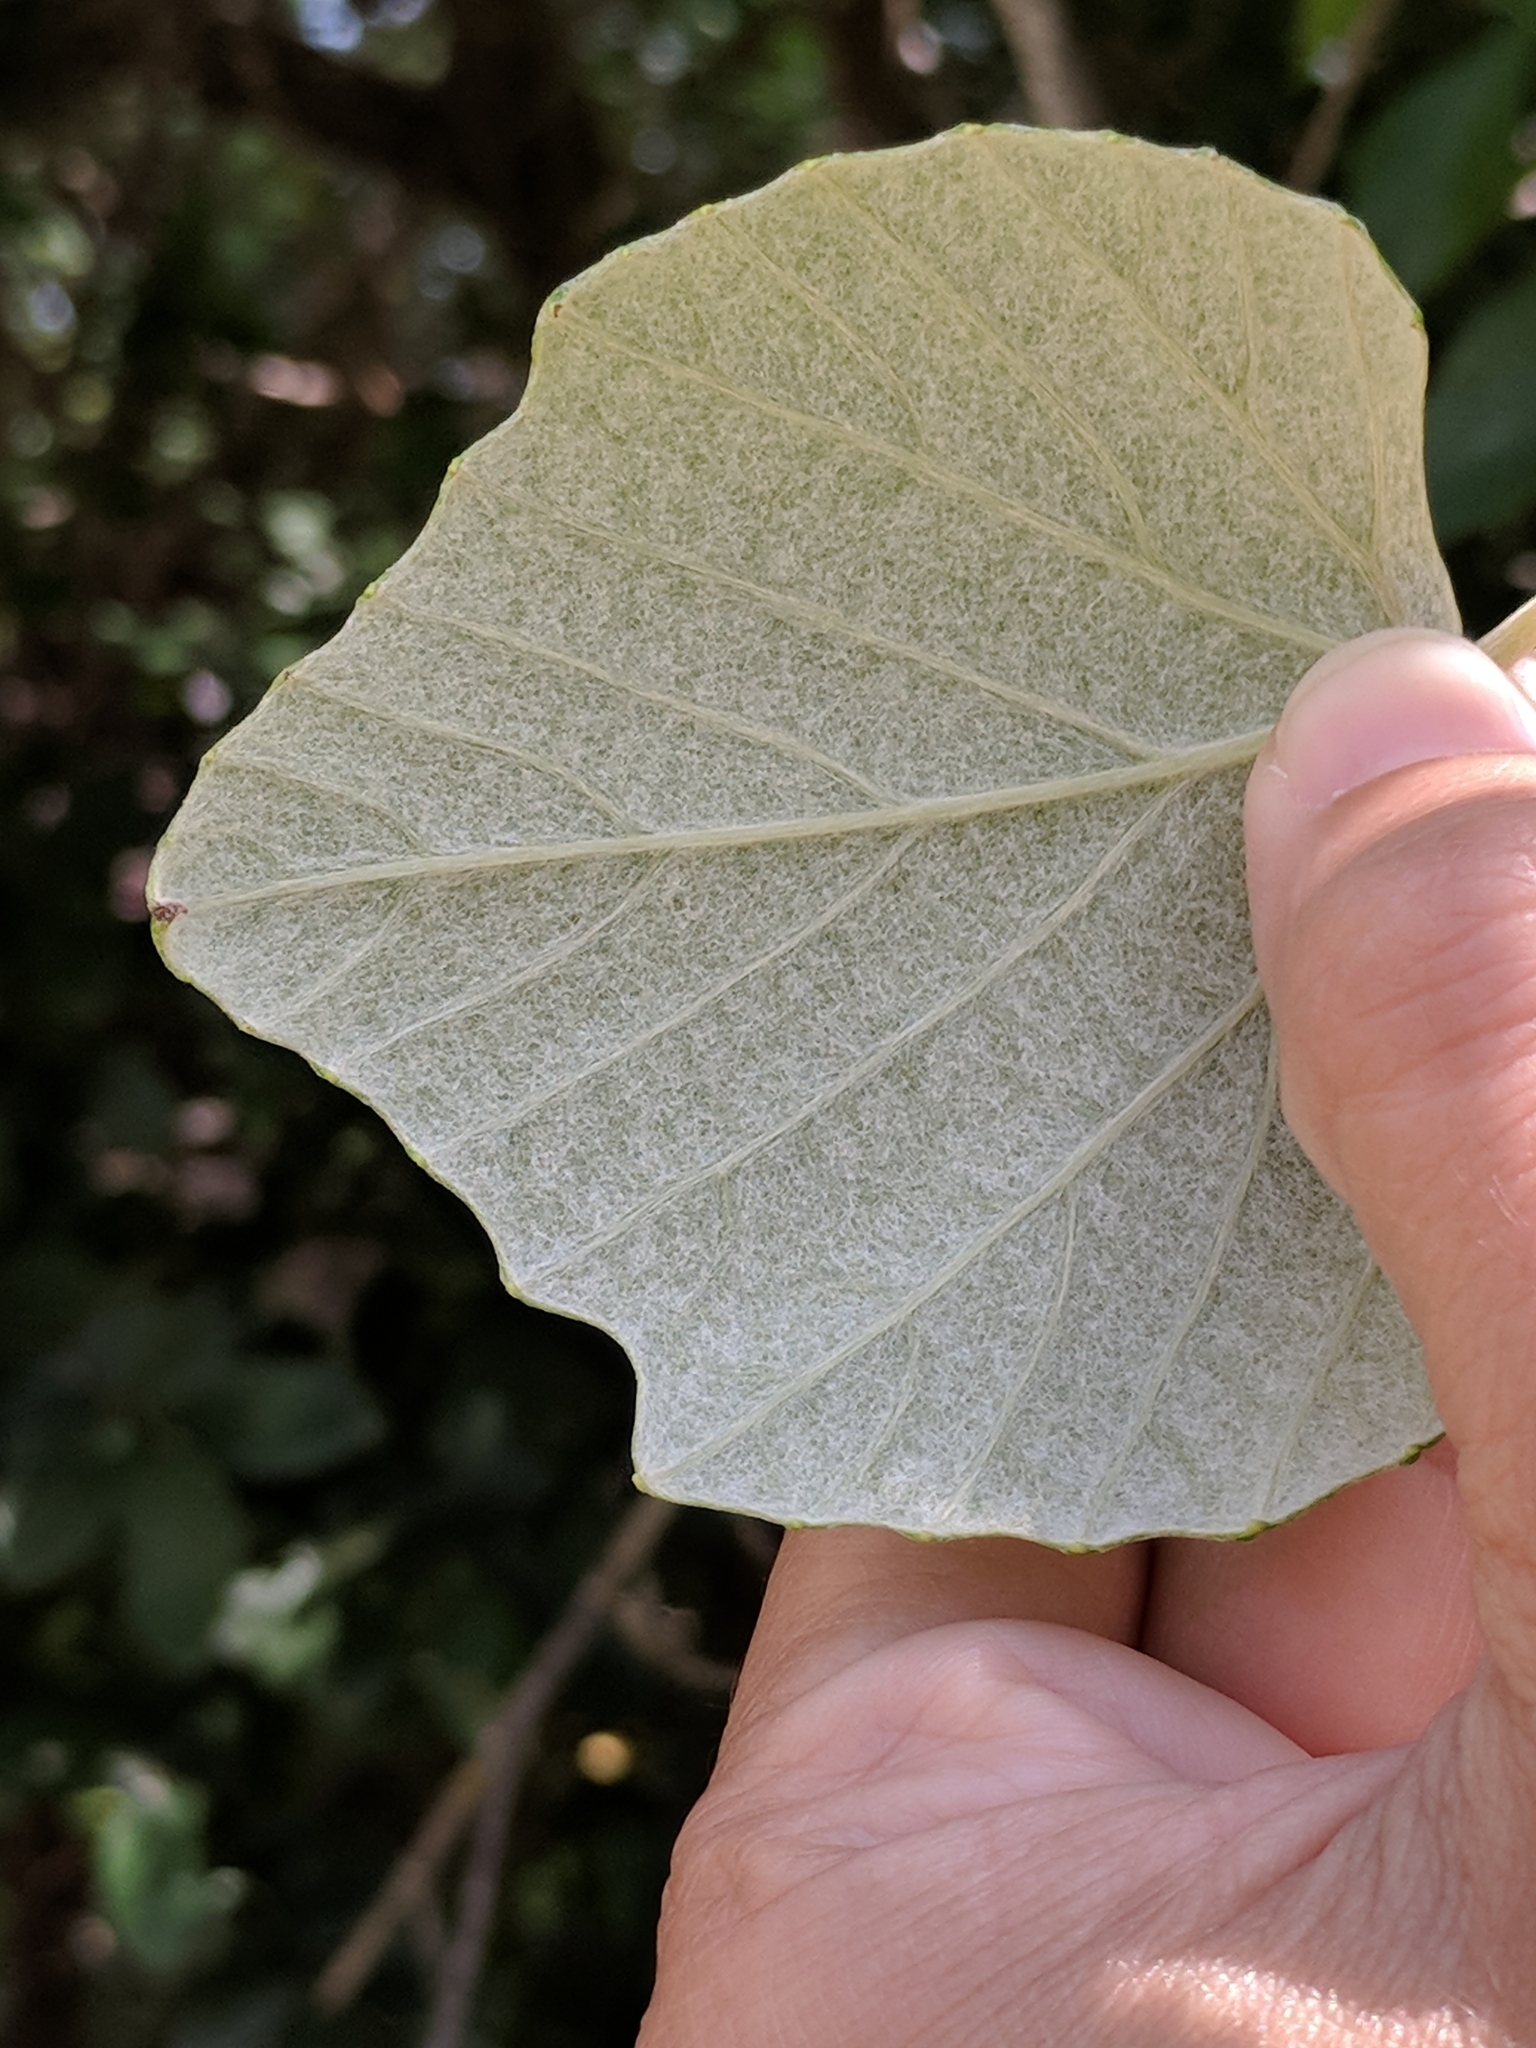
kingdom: Plantae
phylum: Tracheophyta
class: Magnoliopsida
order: Vitales
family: Vitaceae
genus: Vitis
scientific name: Vitis mustangensis
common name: Mustang grape
